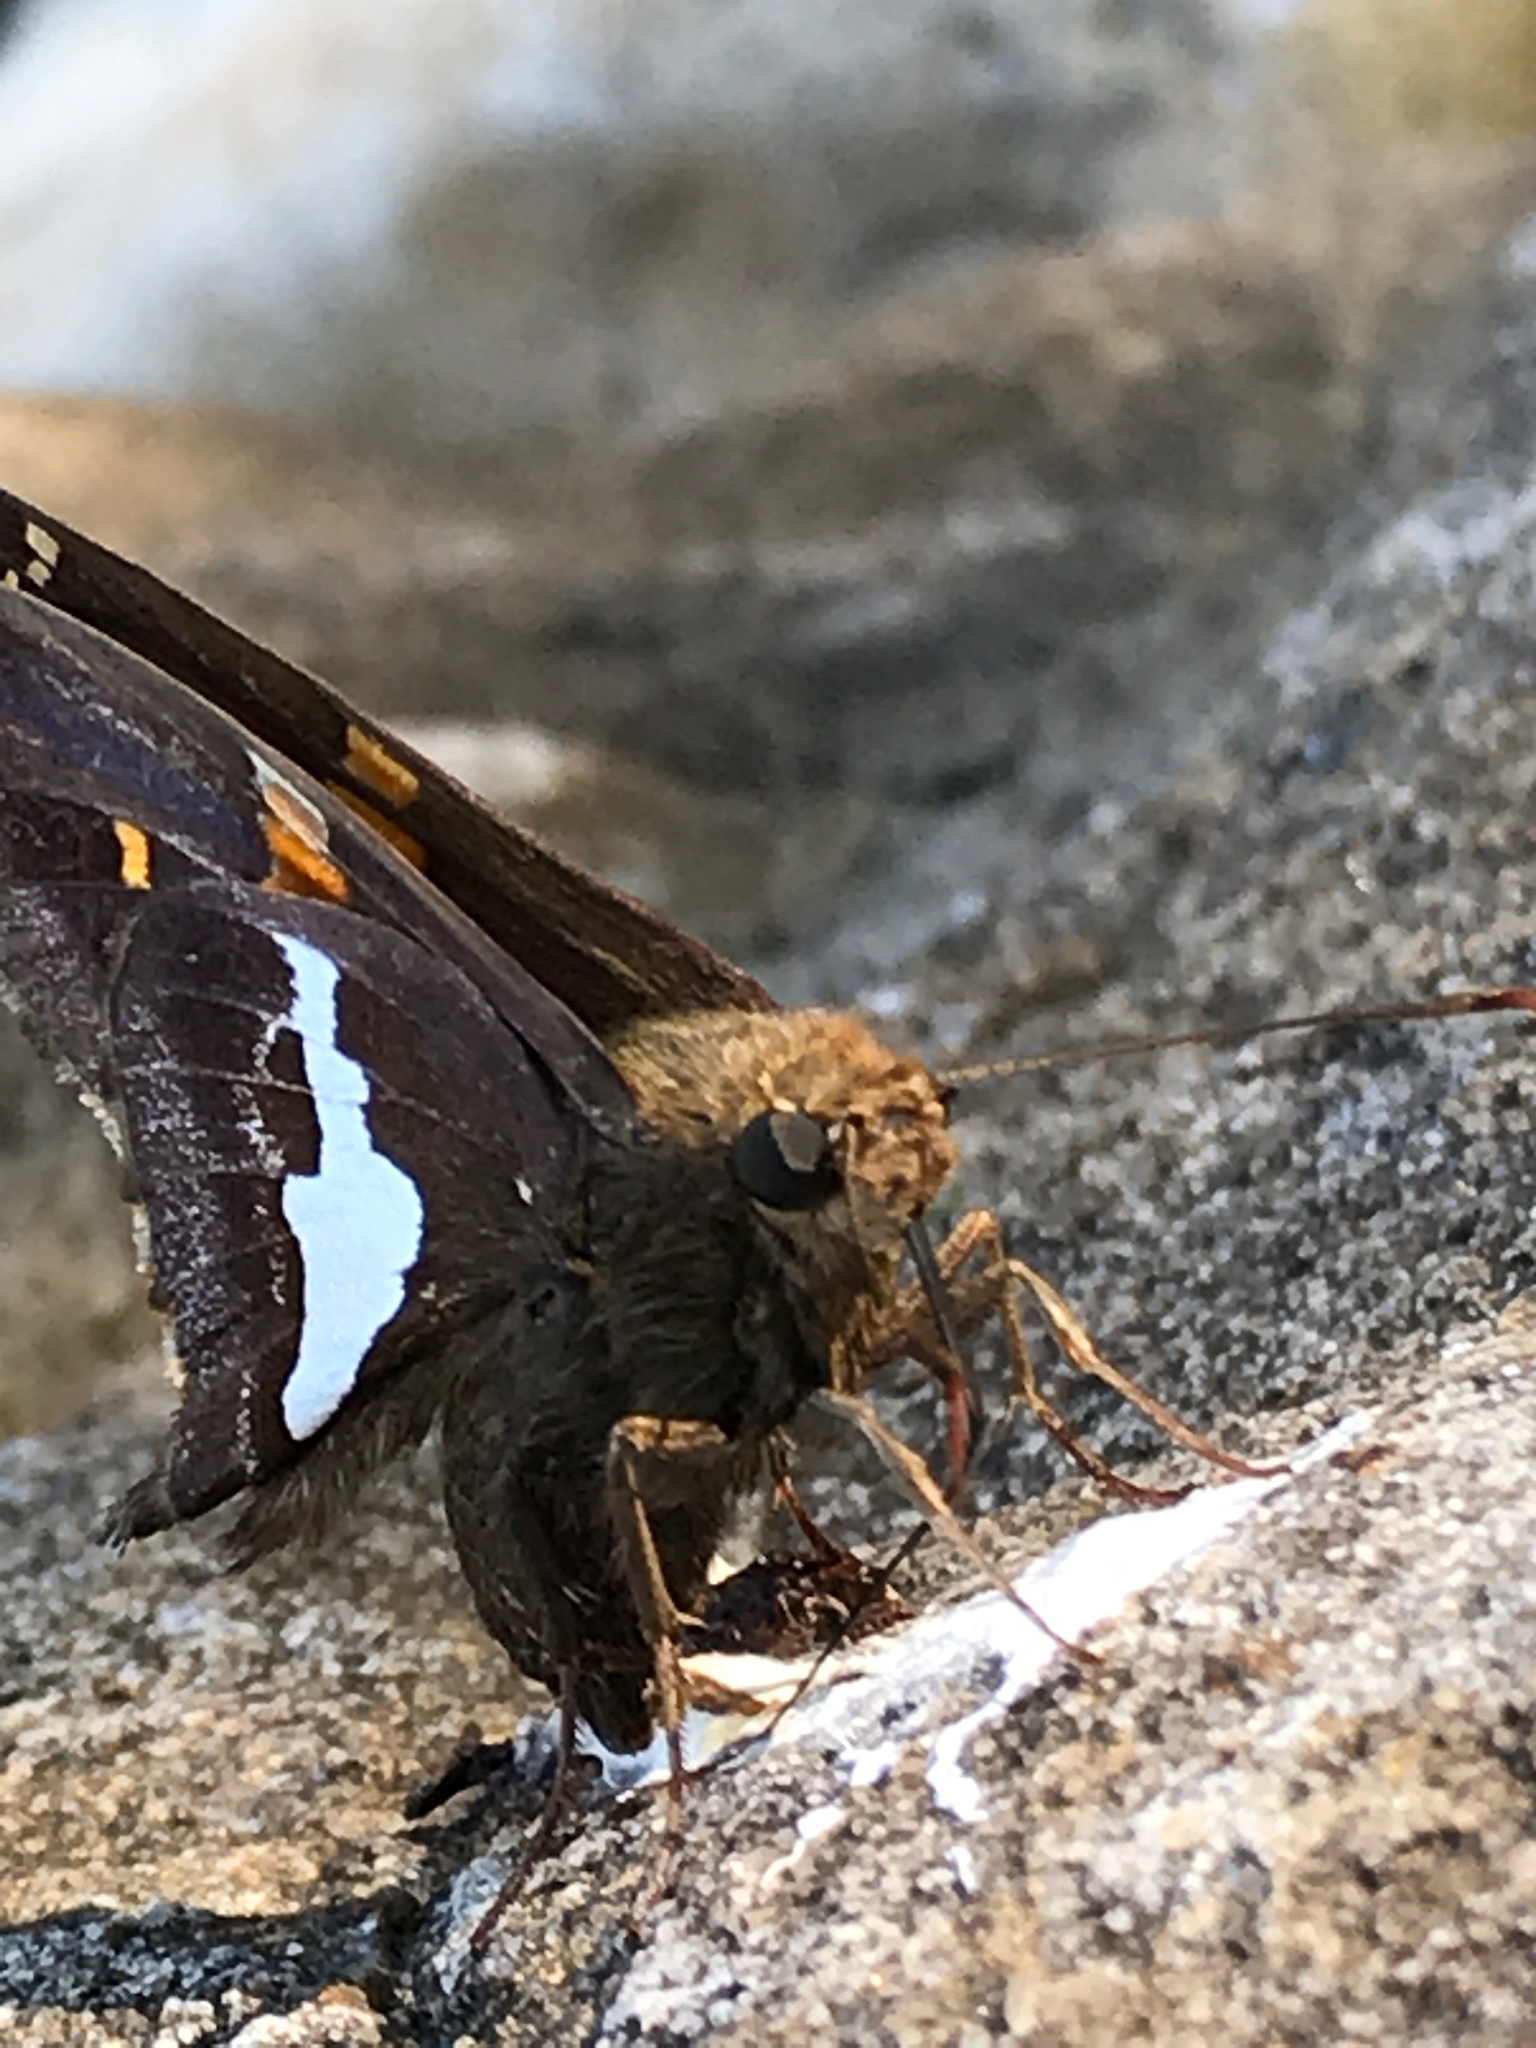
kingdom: Animalia
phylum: Arthropoda
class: Insecta
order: Lepidoptera
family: Hesperiidae
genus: Epargyreus
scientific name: Epargyreus clarus
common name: Silver-spotted skipper
